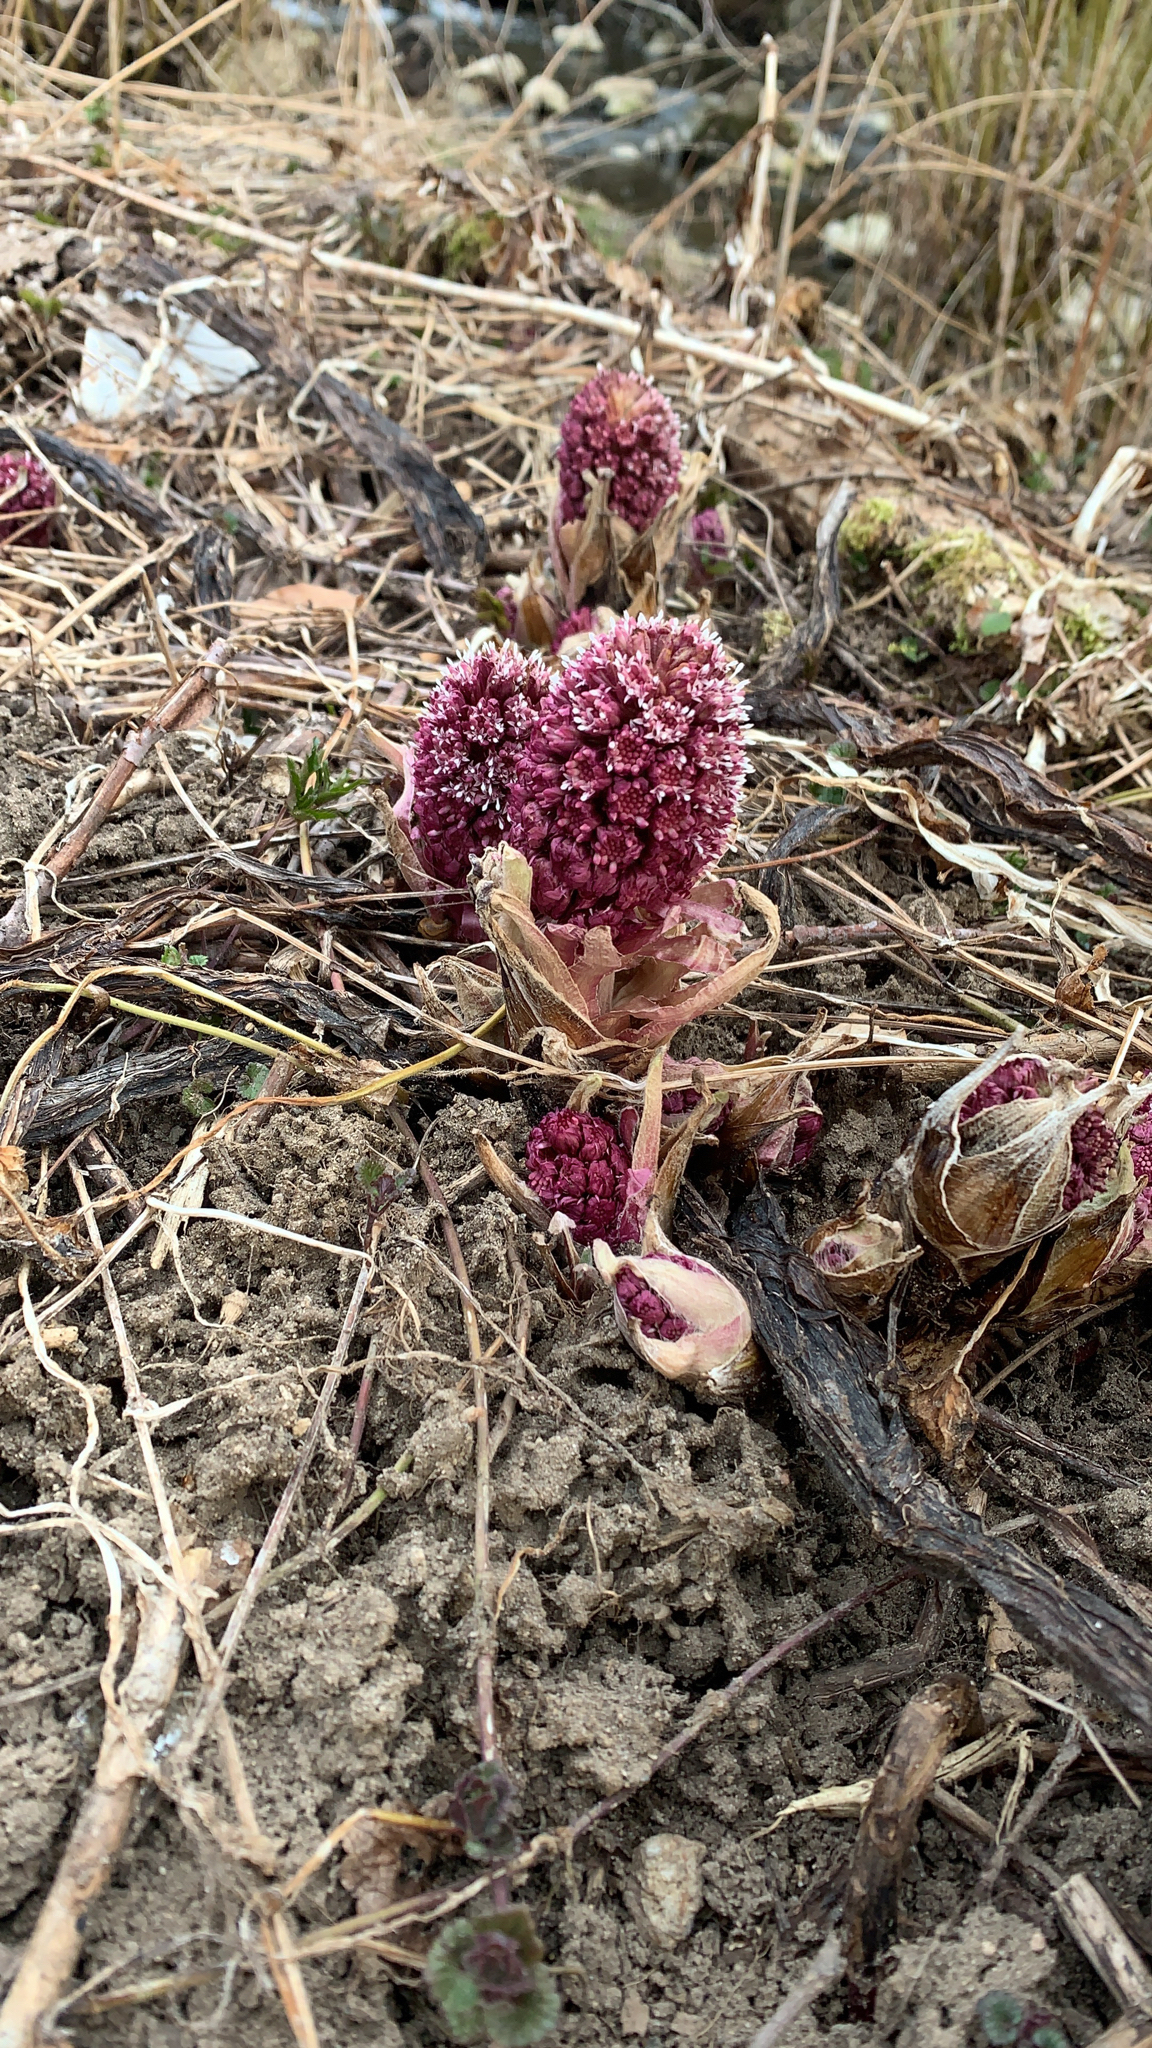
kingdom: Plantae
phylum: Tracheophyta
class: Magnoliopsida
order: Asterales
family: Asteraceae
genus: Petasites
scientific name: Petasites hybridus
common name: Butterbur
